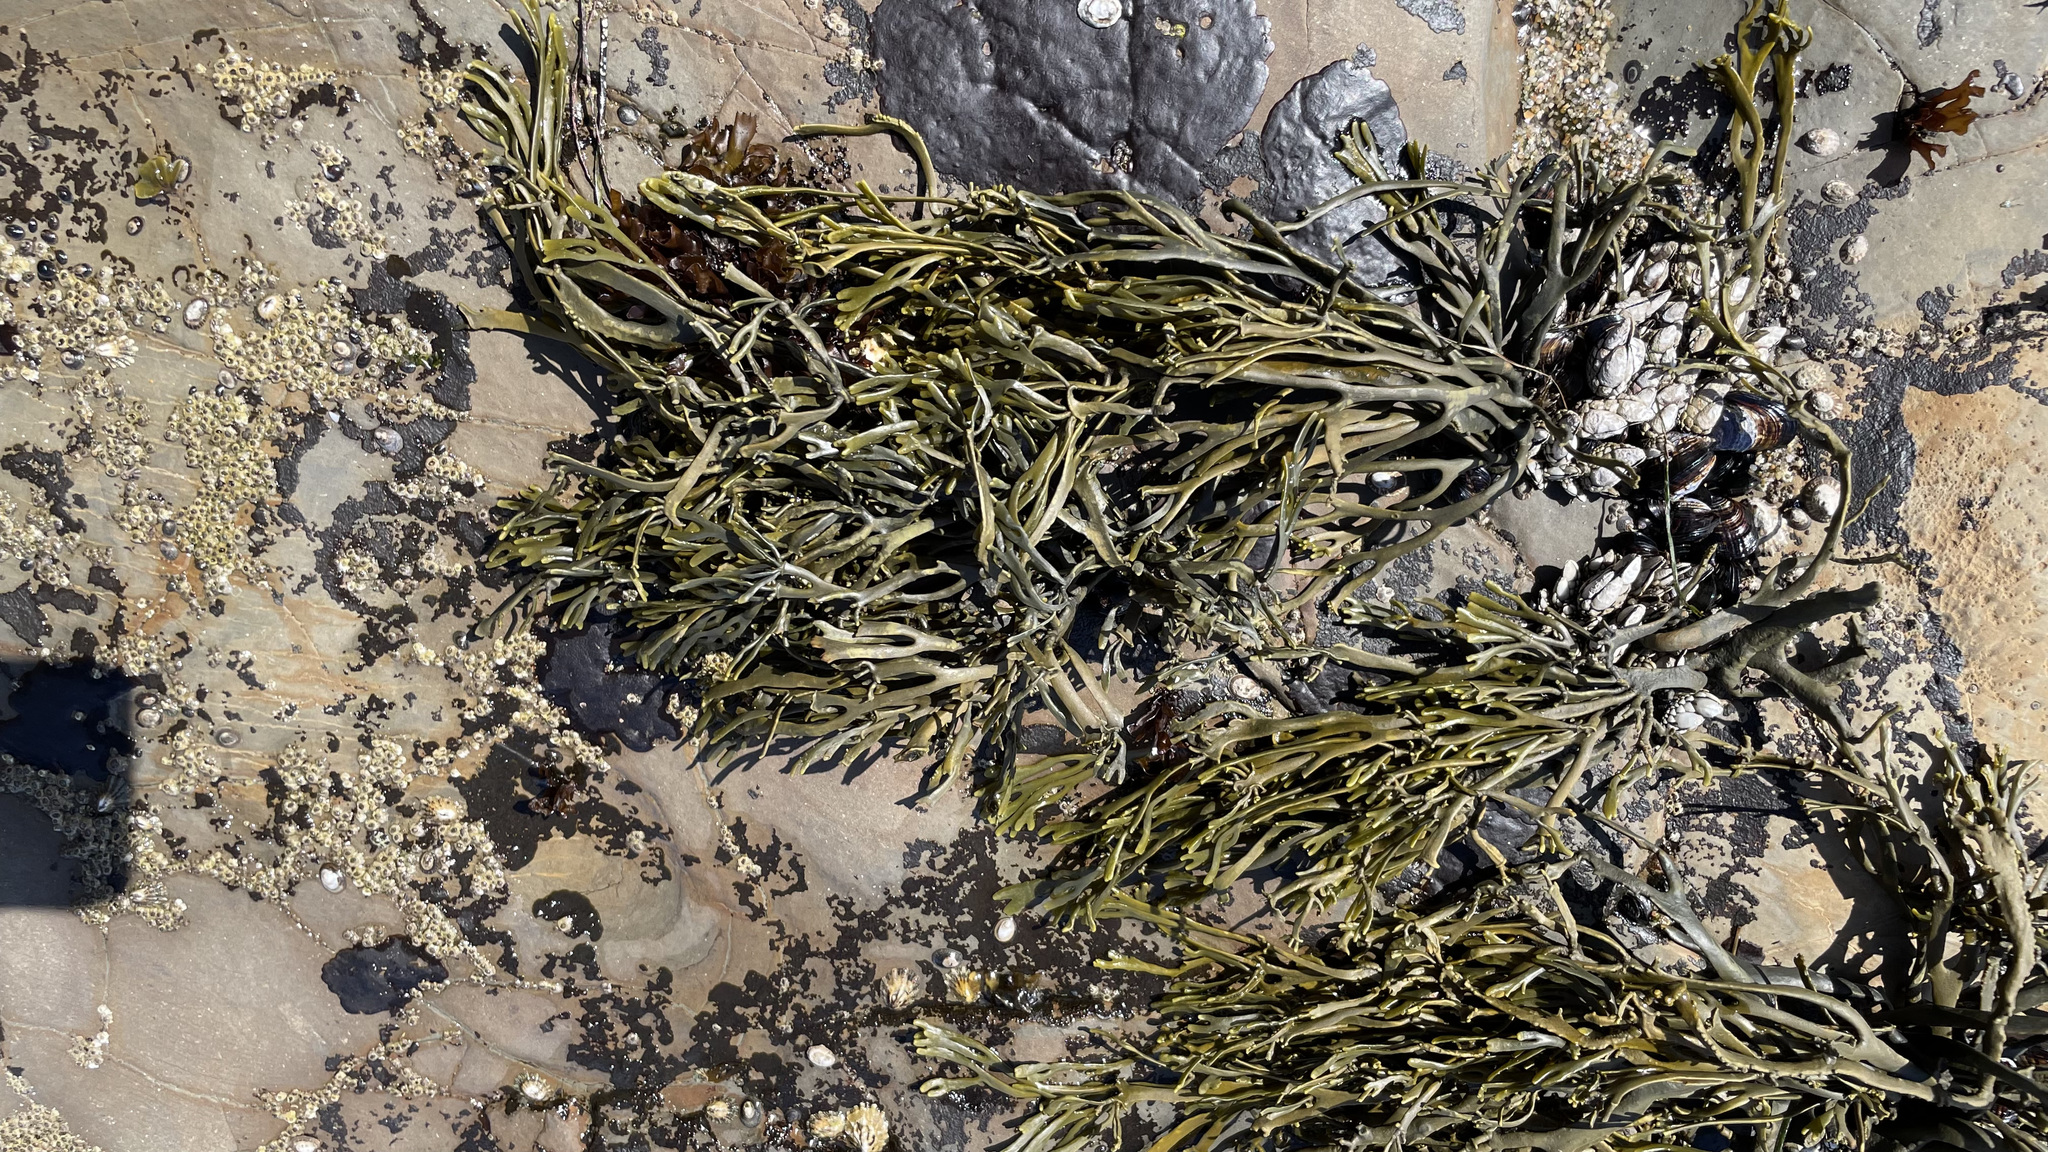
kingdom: Chromista
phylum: Ochrophyta
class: Phaeophyceae
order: Fucales
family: Fucaceae
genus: Silvetia
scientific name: Silvetia
